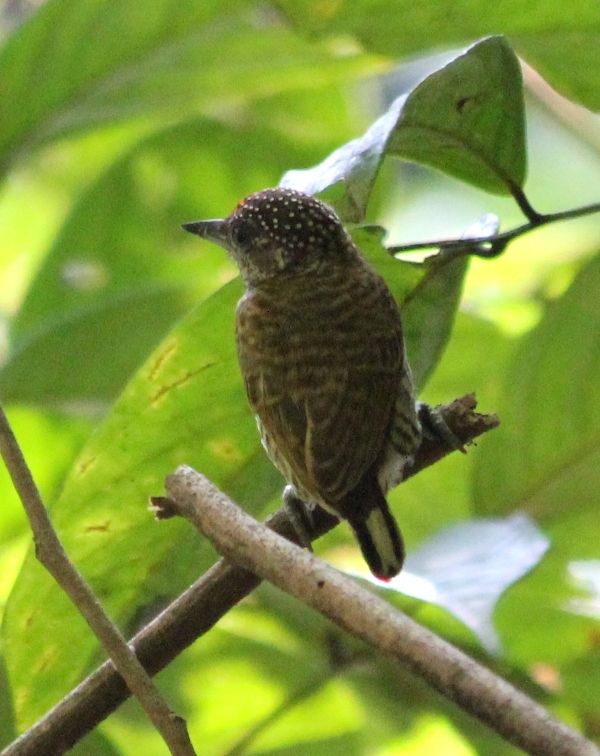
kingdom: Animalia
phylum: Chordata
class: Aves
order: Piciformes
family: Picidae
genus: Picumnus
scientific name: Picumnus lafresnayi
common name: Lafresnaye's piculet
